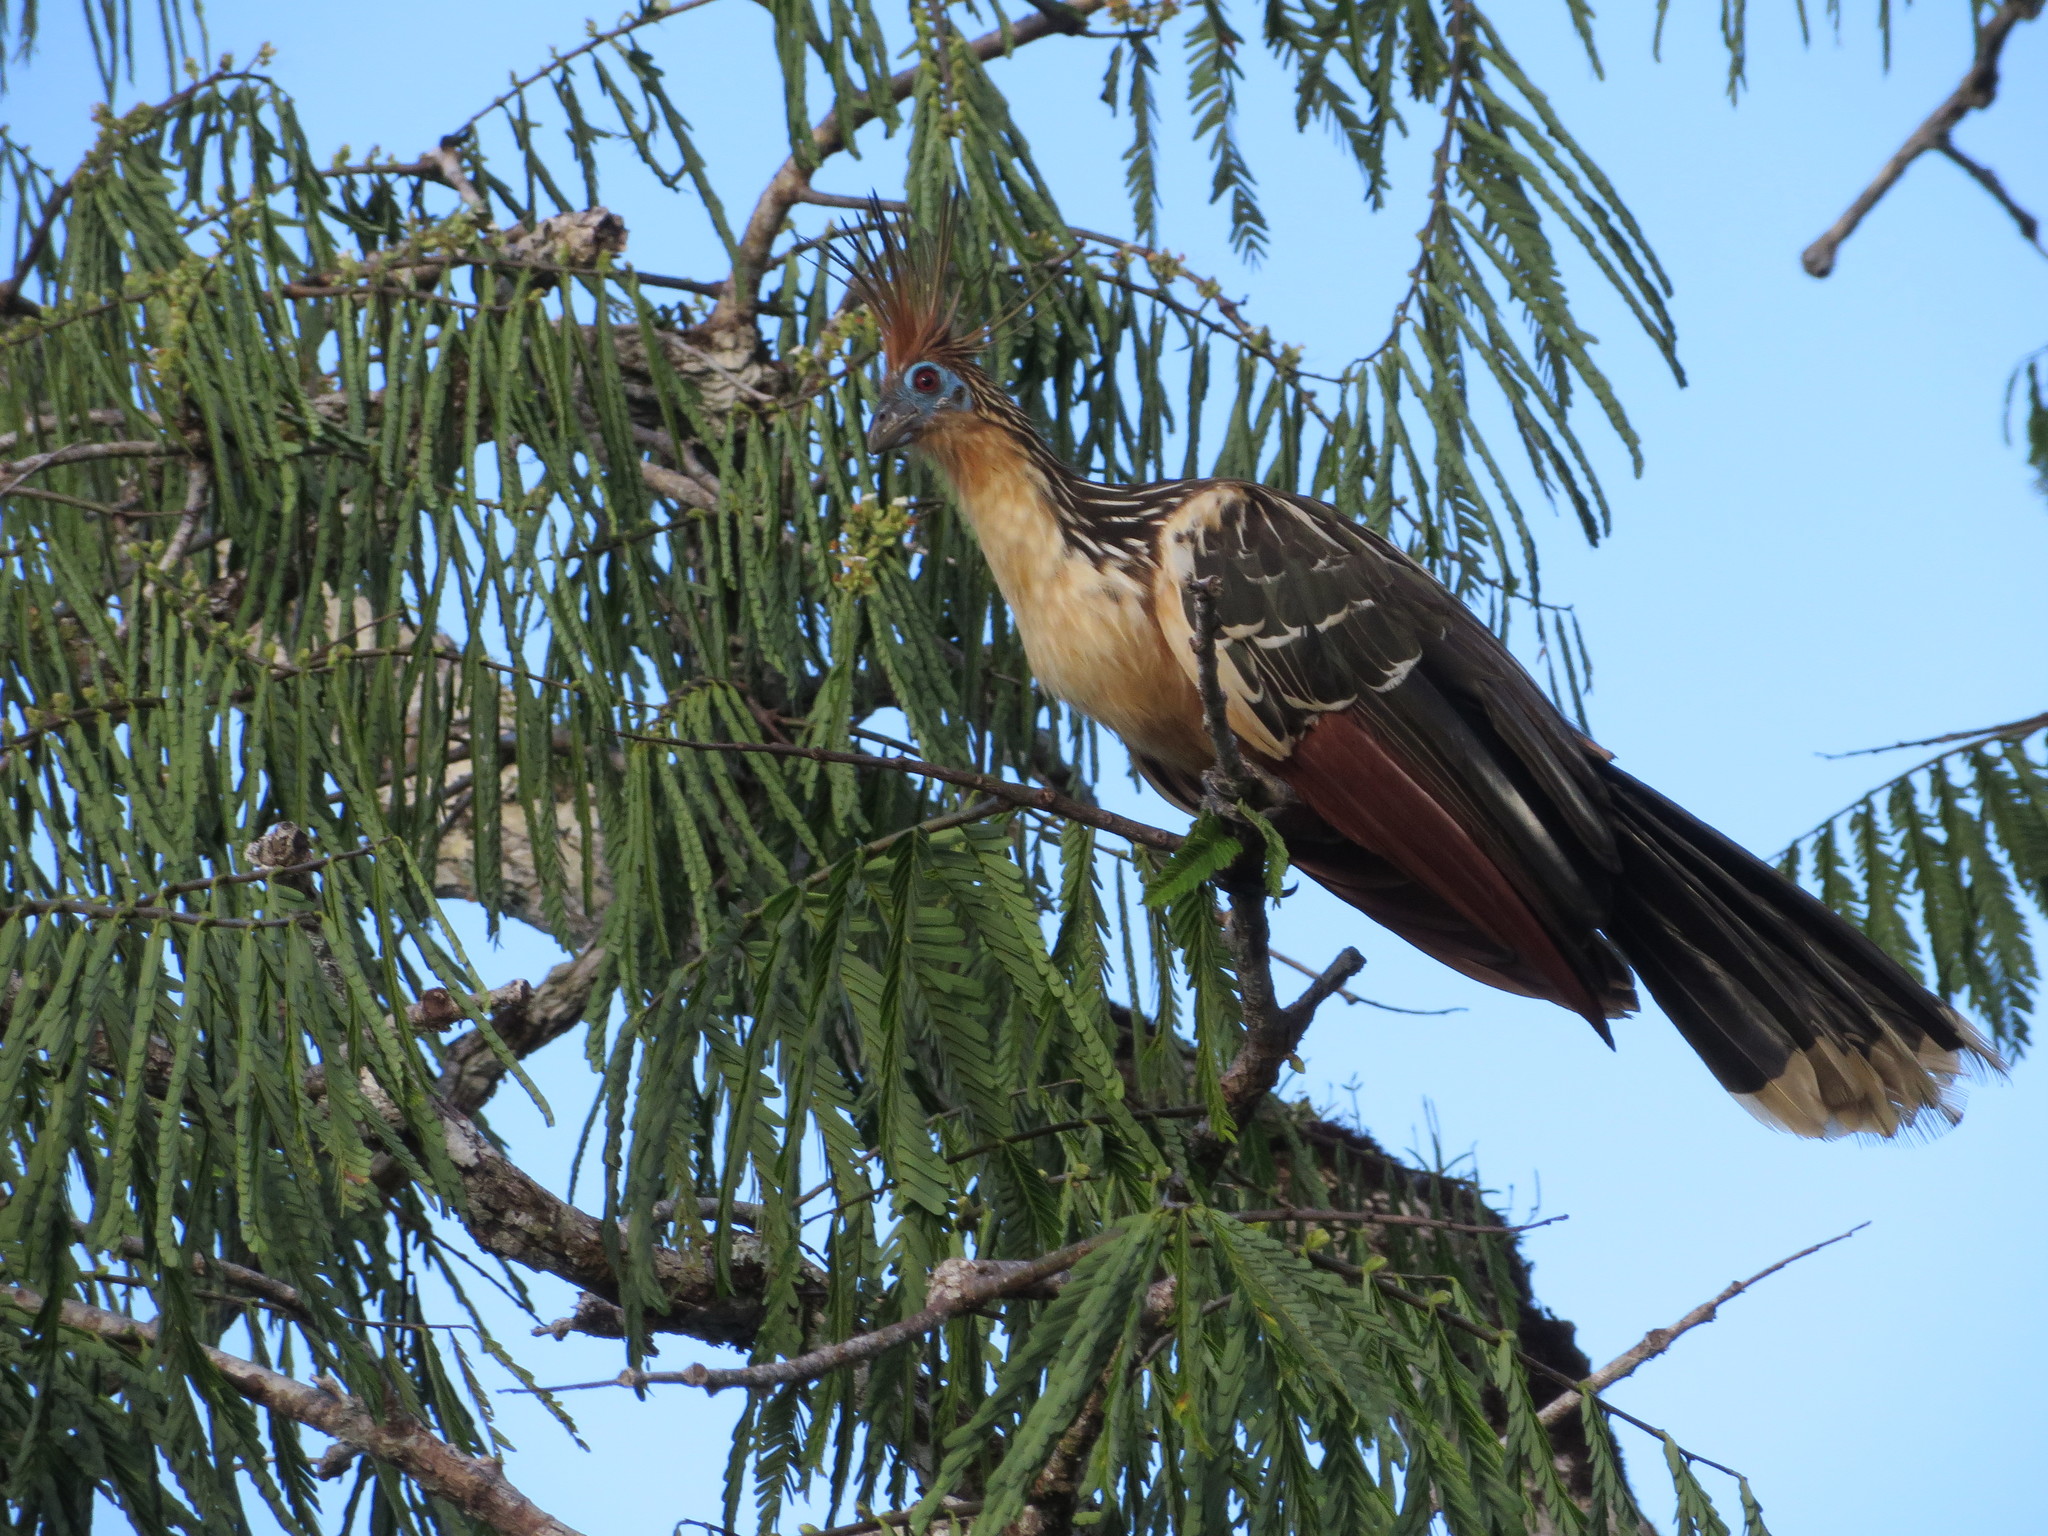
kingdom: Animalia
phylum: Chordata
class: Aves
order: Opisthocomiformes
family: Opisthocomidae
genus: Opisthocomus
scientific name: Opisthocomus hoazin
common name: Hoatzin
